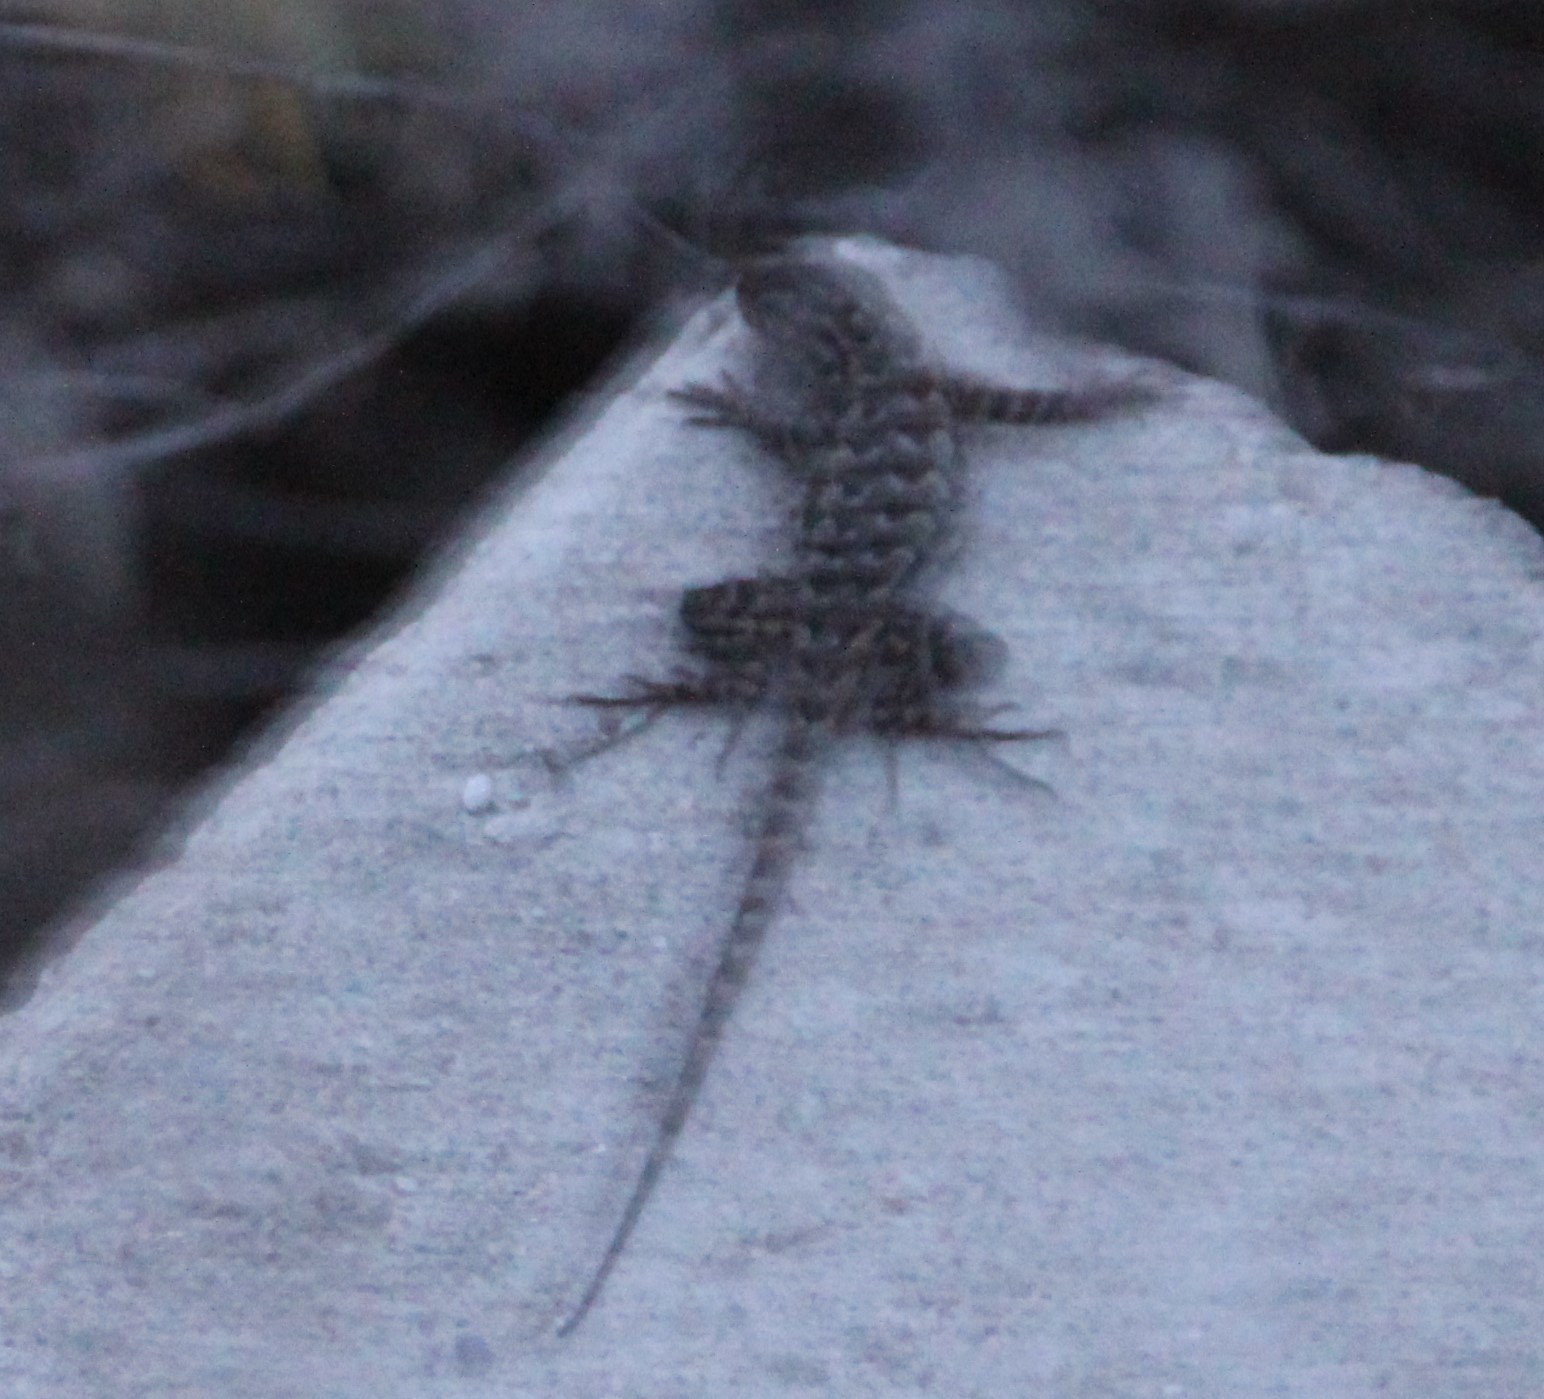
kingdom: Animalia
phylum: Chordata
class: Squamata
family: Phrynosomatidae
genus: Sceloporus
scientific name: Sceloporus occidentalis
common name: Western fence lizard
